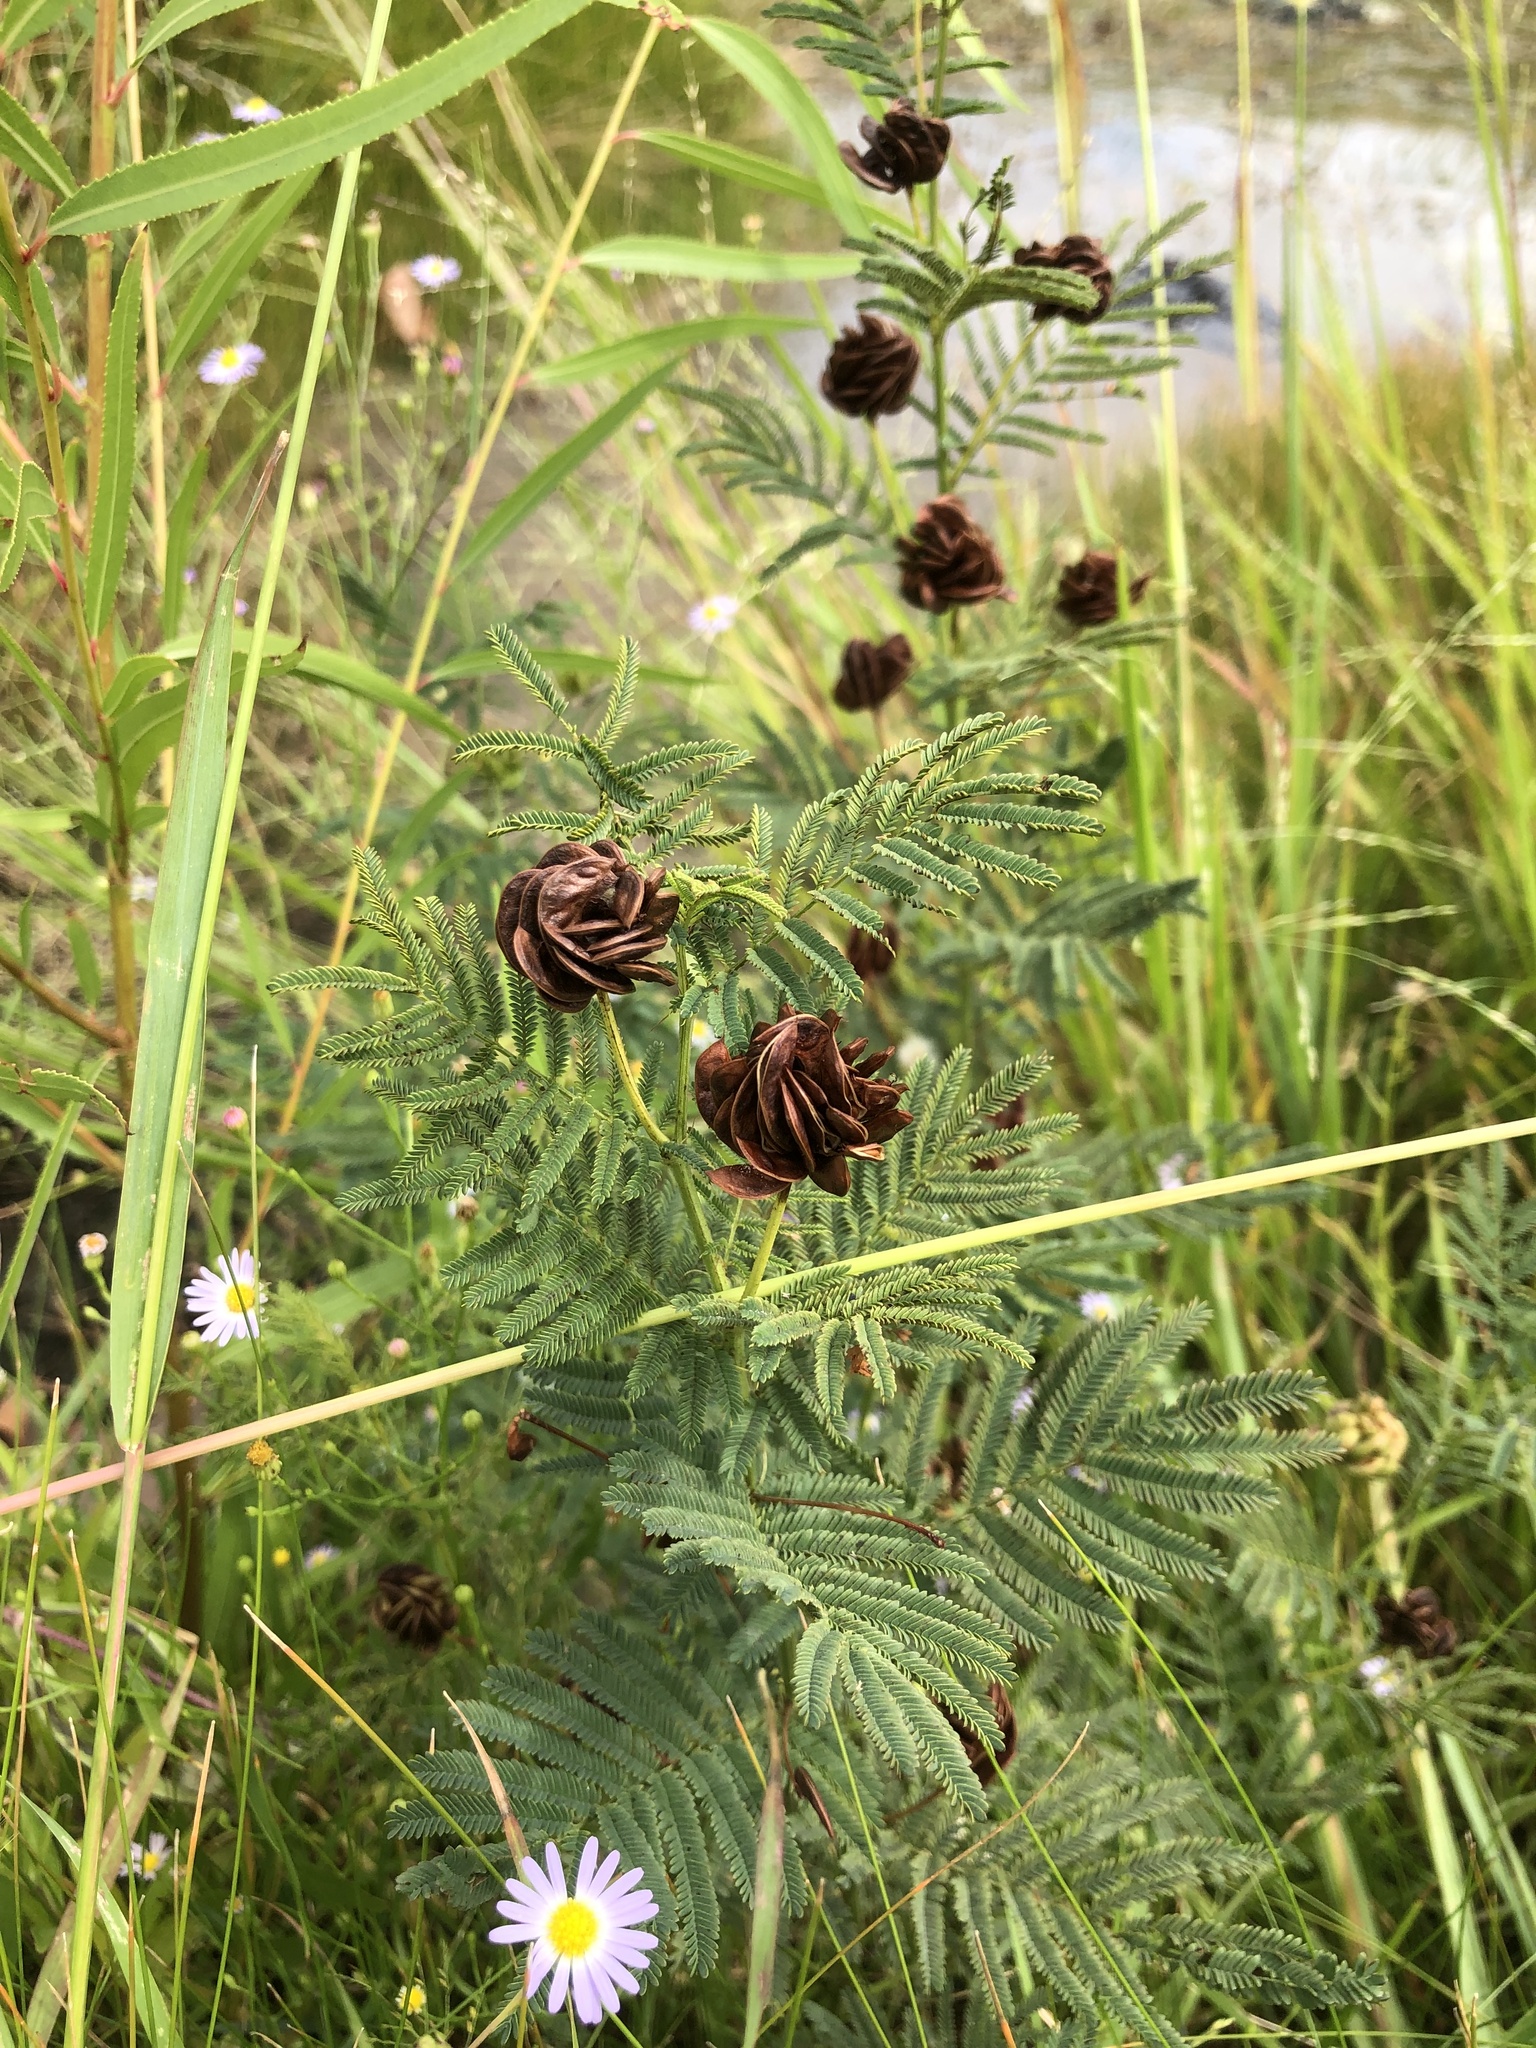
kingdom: Plantae
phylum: Tracheophyta
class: Magnoliopsida
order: Fabales
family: Fabaceae
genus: Desmanthus
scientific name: Desmanthus illinoensis
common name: Illinois bundle-flower
